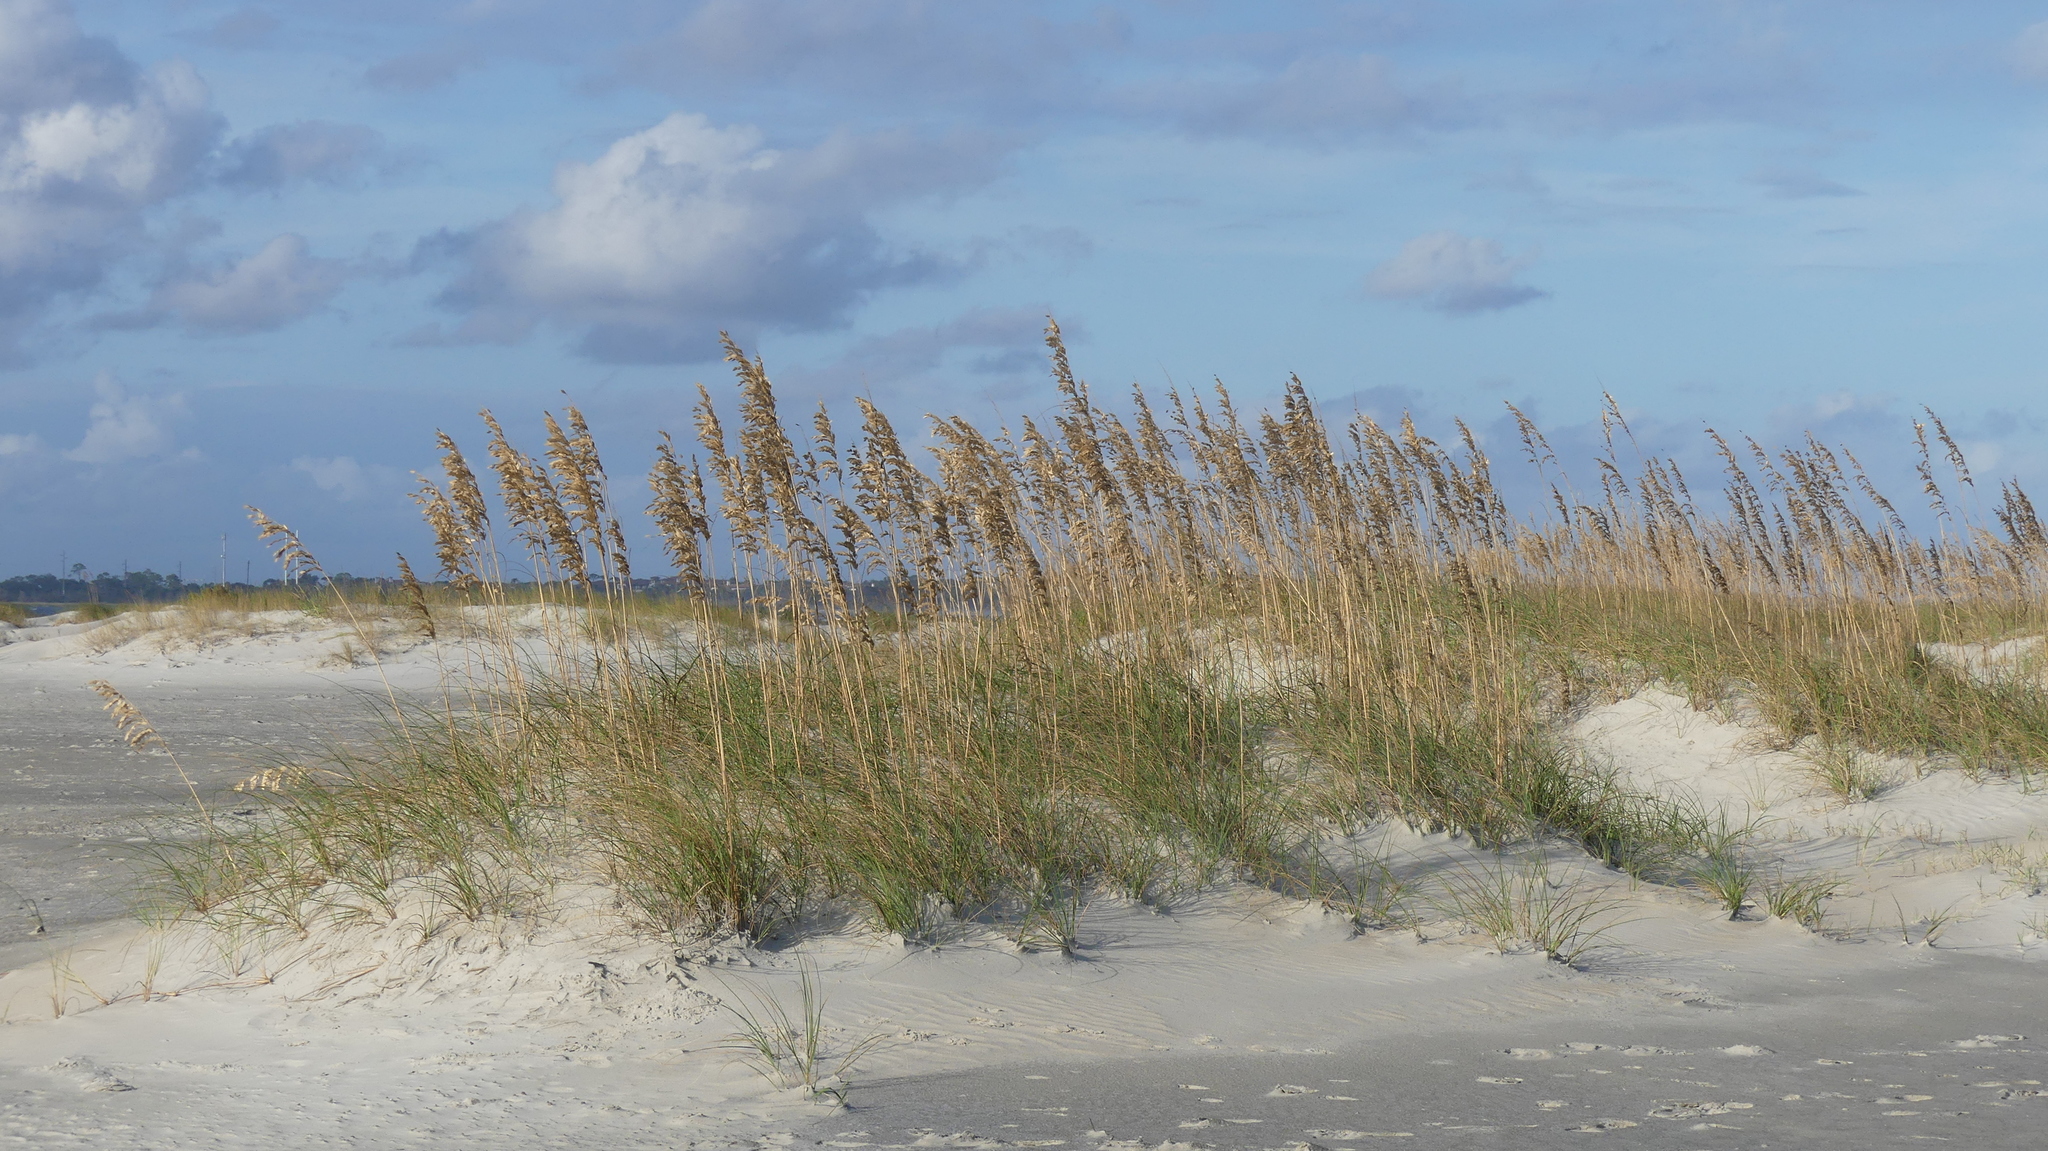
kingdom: Plantae
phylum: Tracheophyta
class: Liliopsida
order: Poales
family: Poaceae
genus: Uniola
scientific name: Uniola paniculata
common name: Seaside-oats
